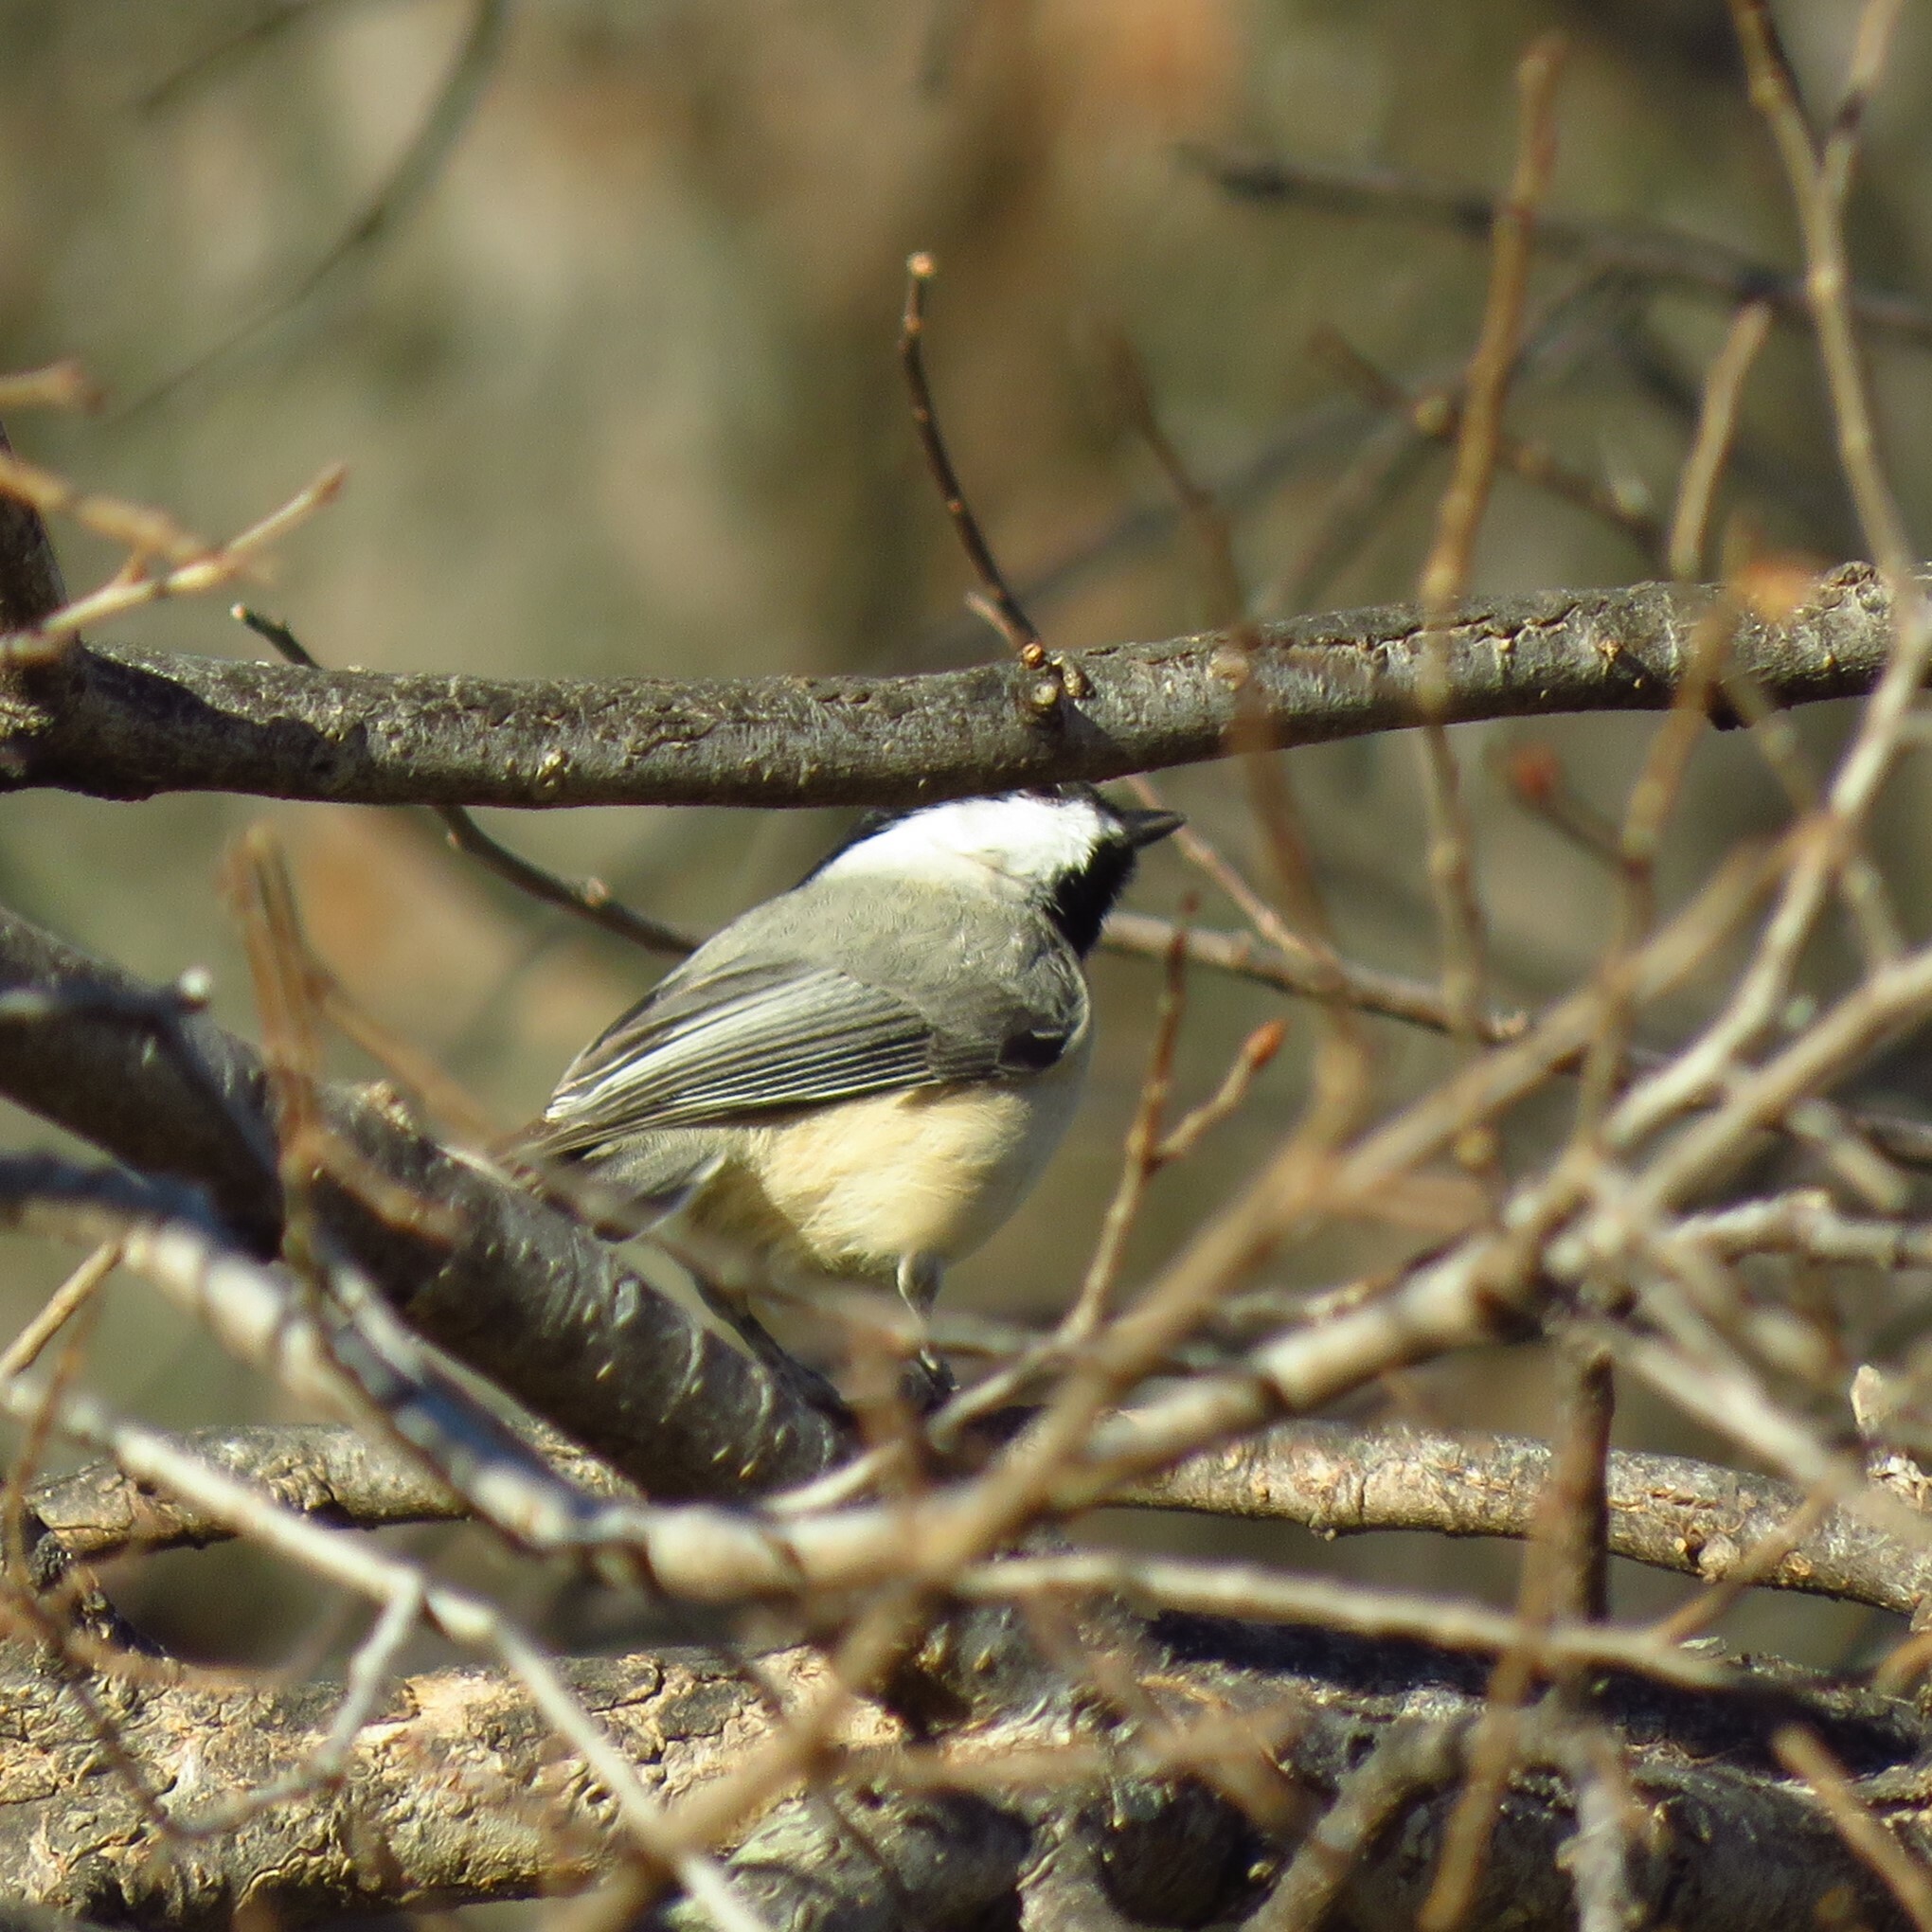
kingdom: Animalia
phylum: Chordata
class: Aves
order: Passeriformes
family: Paridae
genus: Poecile
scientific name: Poecile carolinensis
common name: Carolina chickadee
